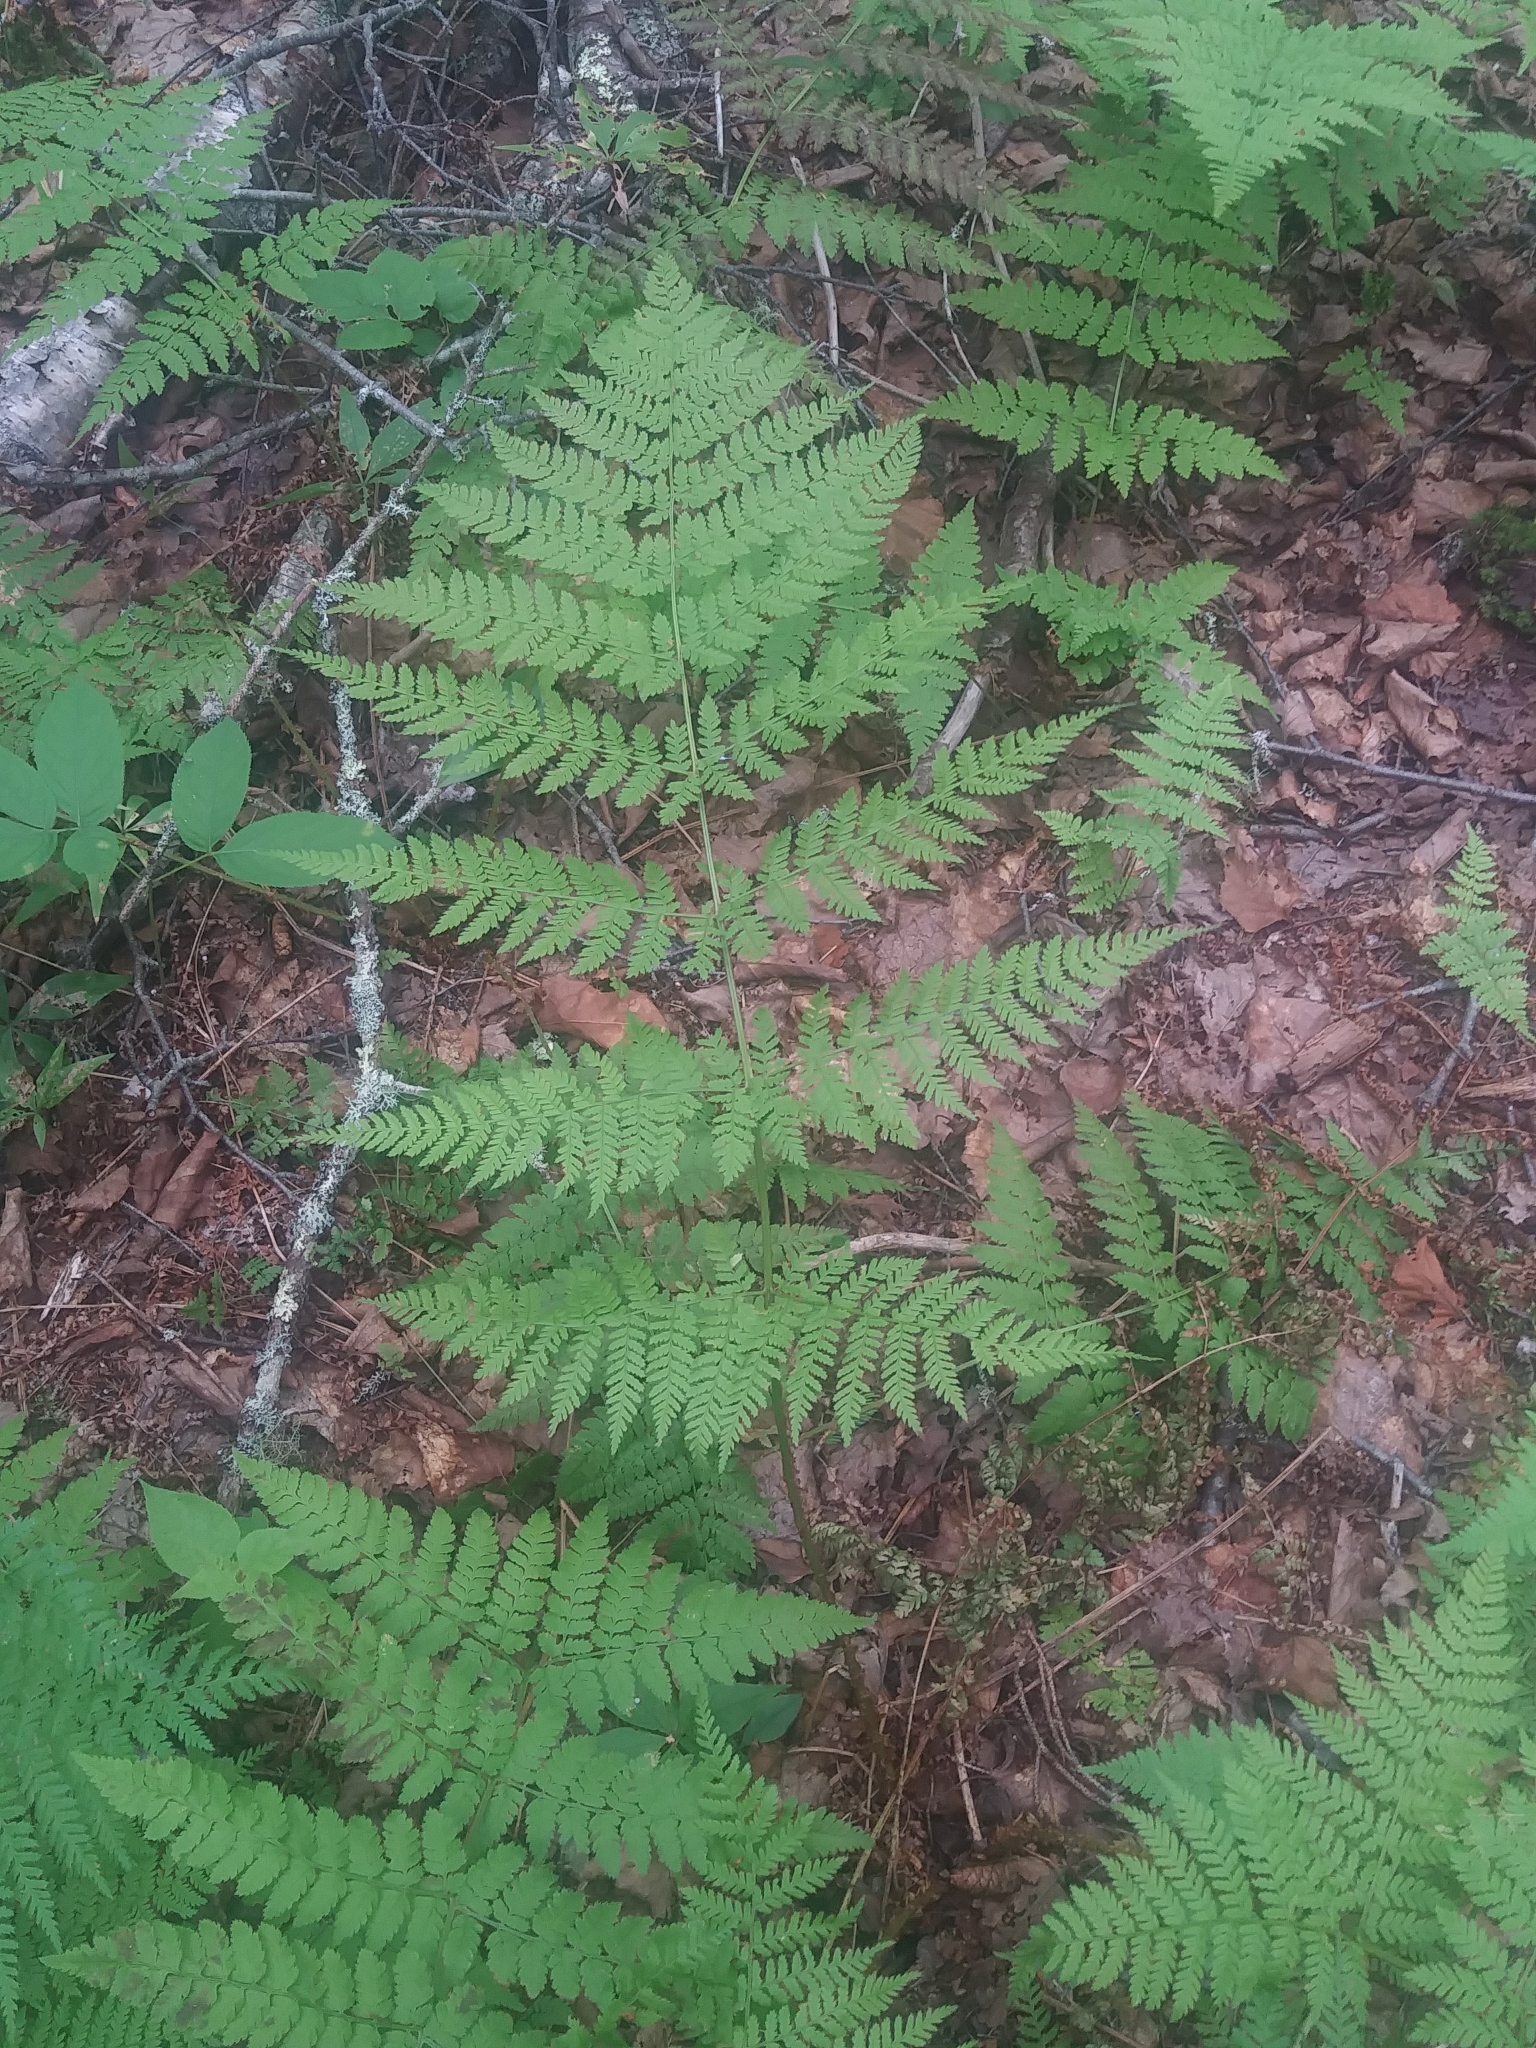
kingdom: Plantae
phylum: Tracheophyta
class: Polypodiopsida
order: Polypodiales
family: Dryopteridaceae
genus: Dryopteris
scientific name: Dryopteris campyloptera
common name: Mountain wood fern
